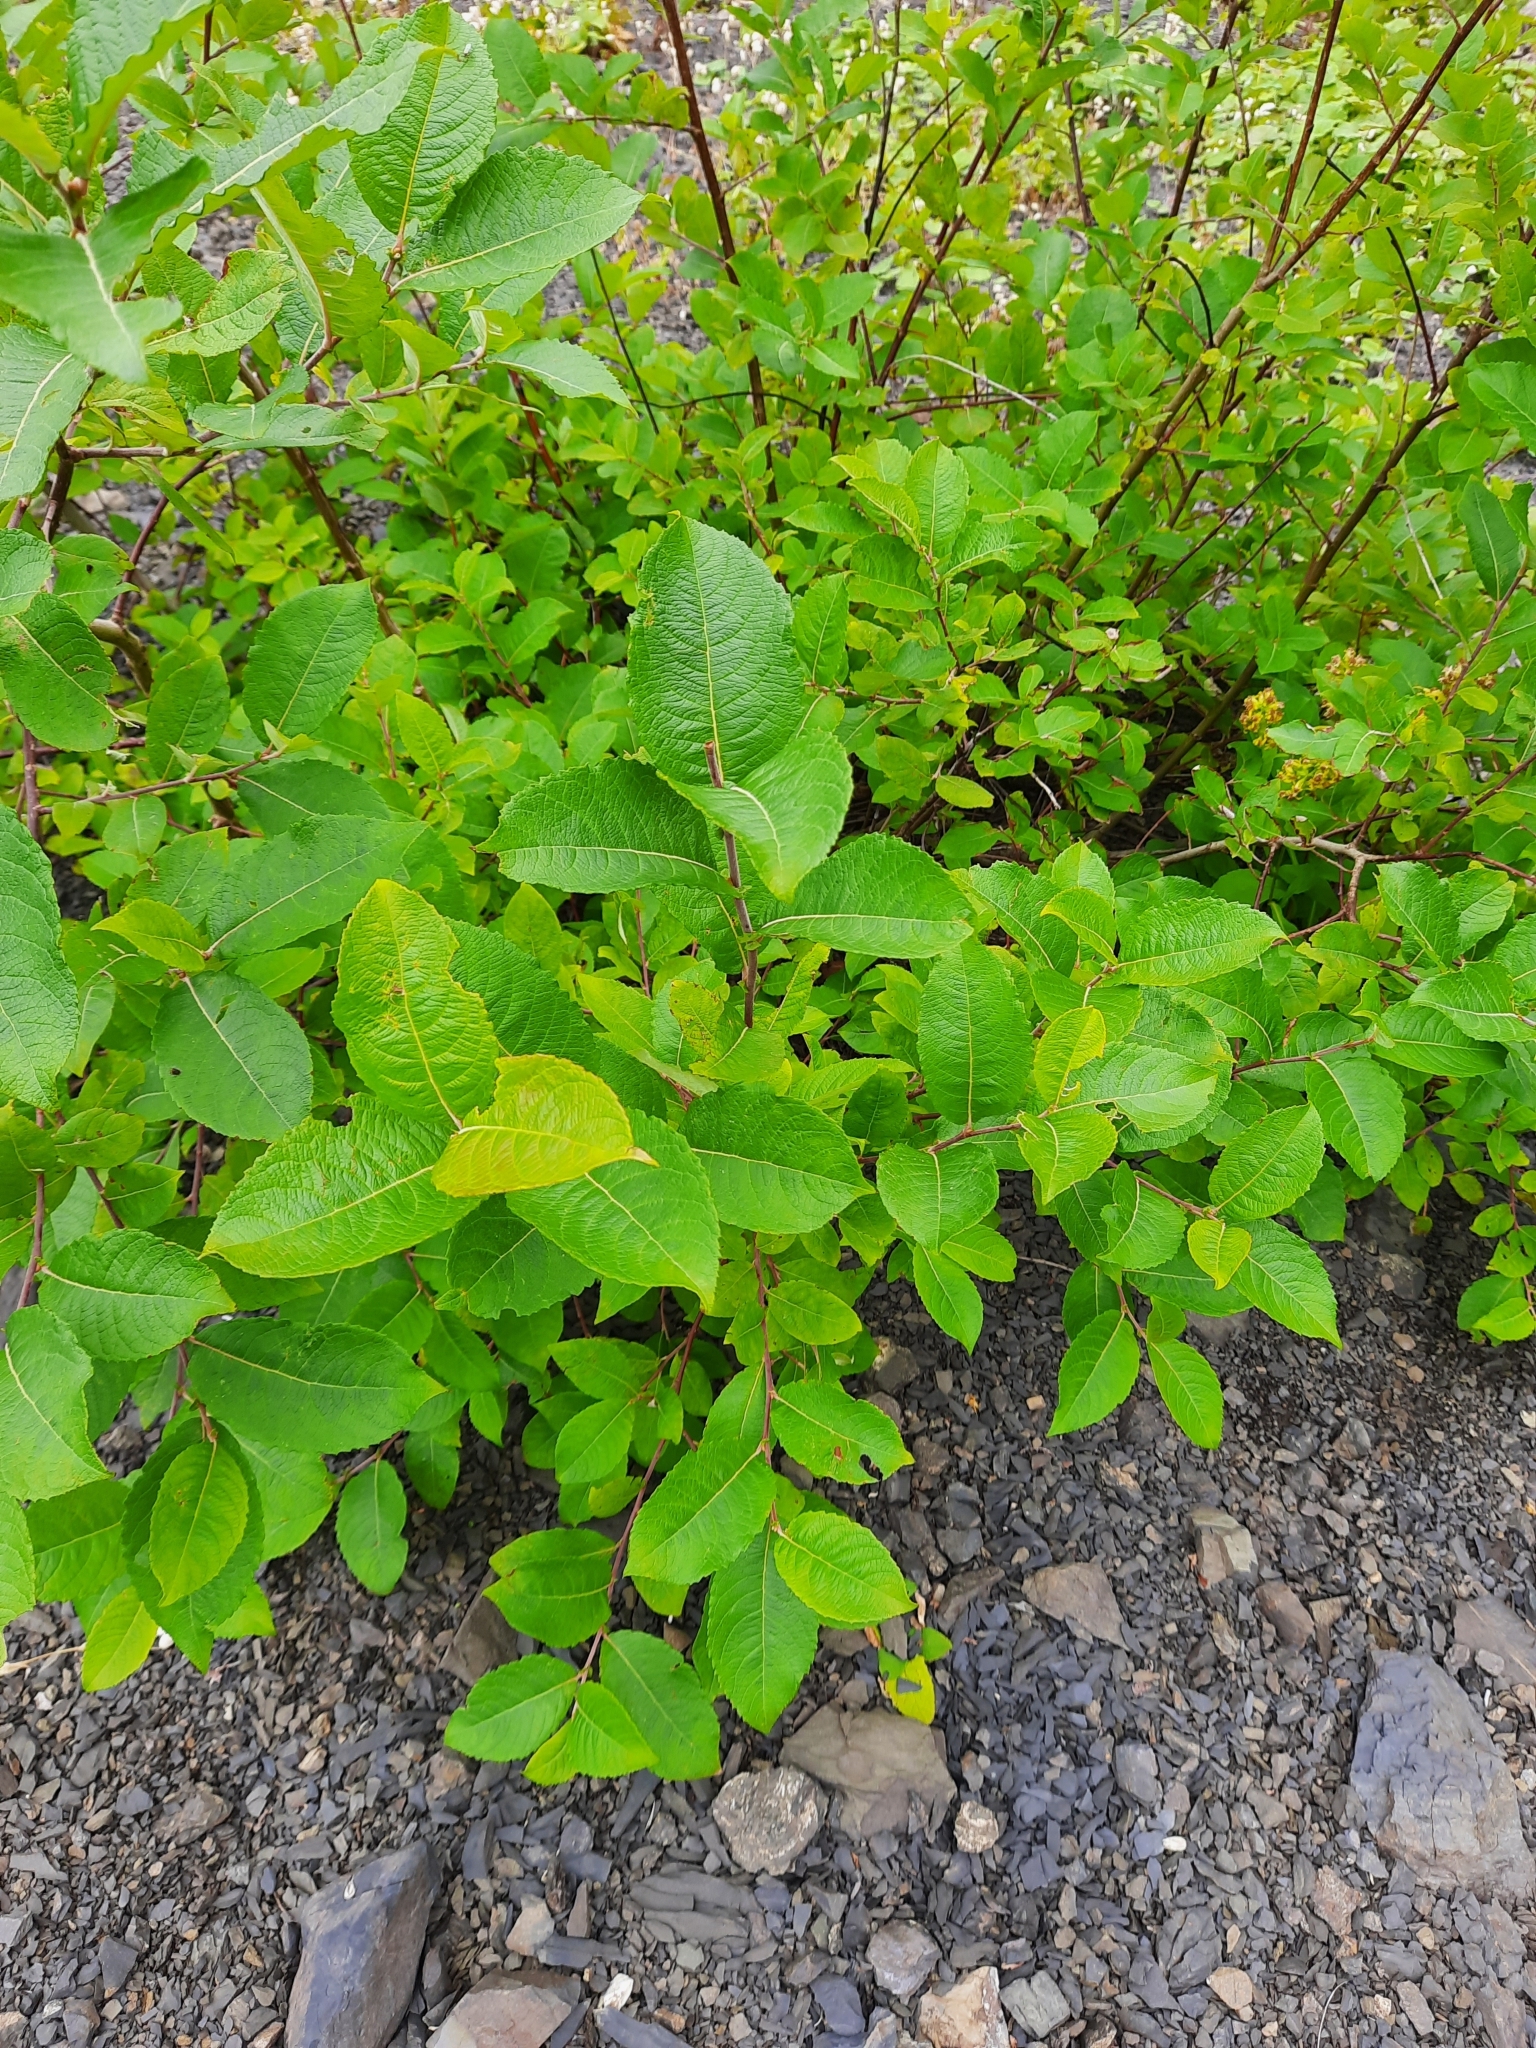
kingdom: Plantae
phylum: Tracheophyta
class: Magnoliopsida
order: Malpighiales
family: Salicaceae
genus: Salix
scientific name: Salix caprea
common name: Goat willow
